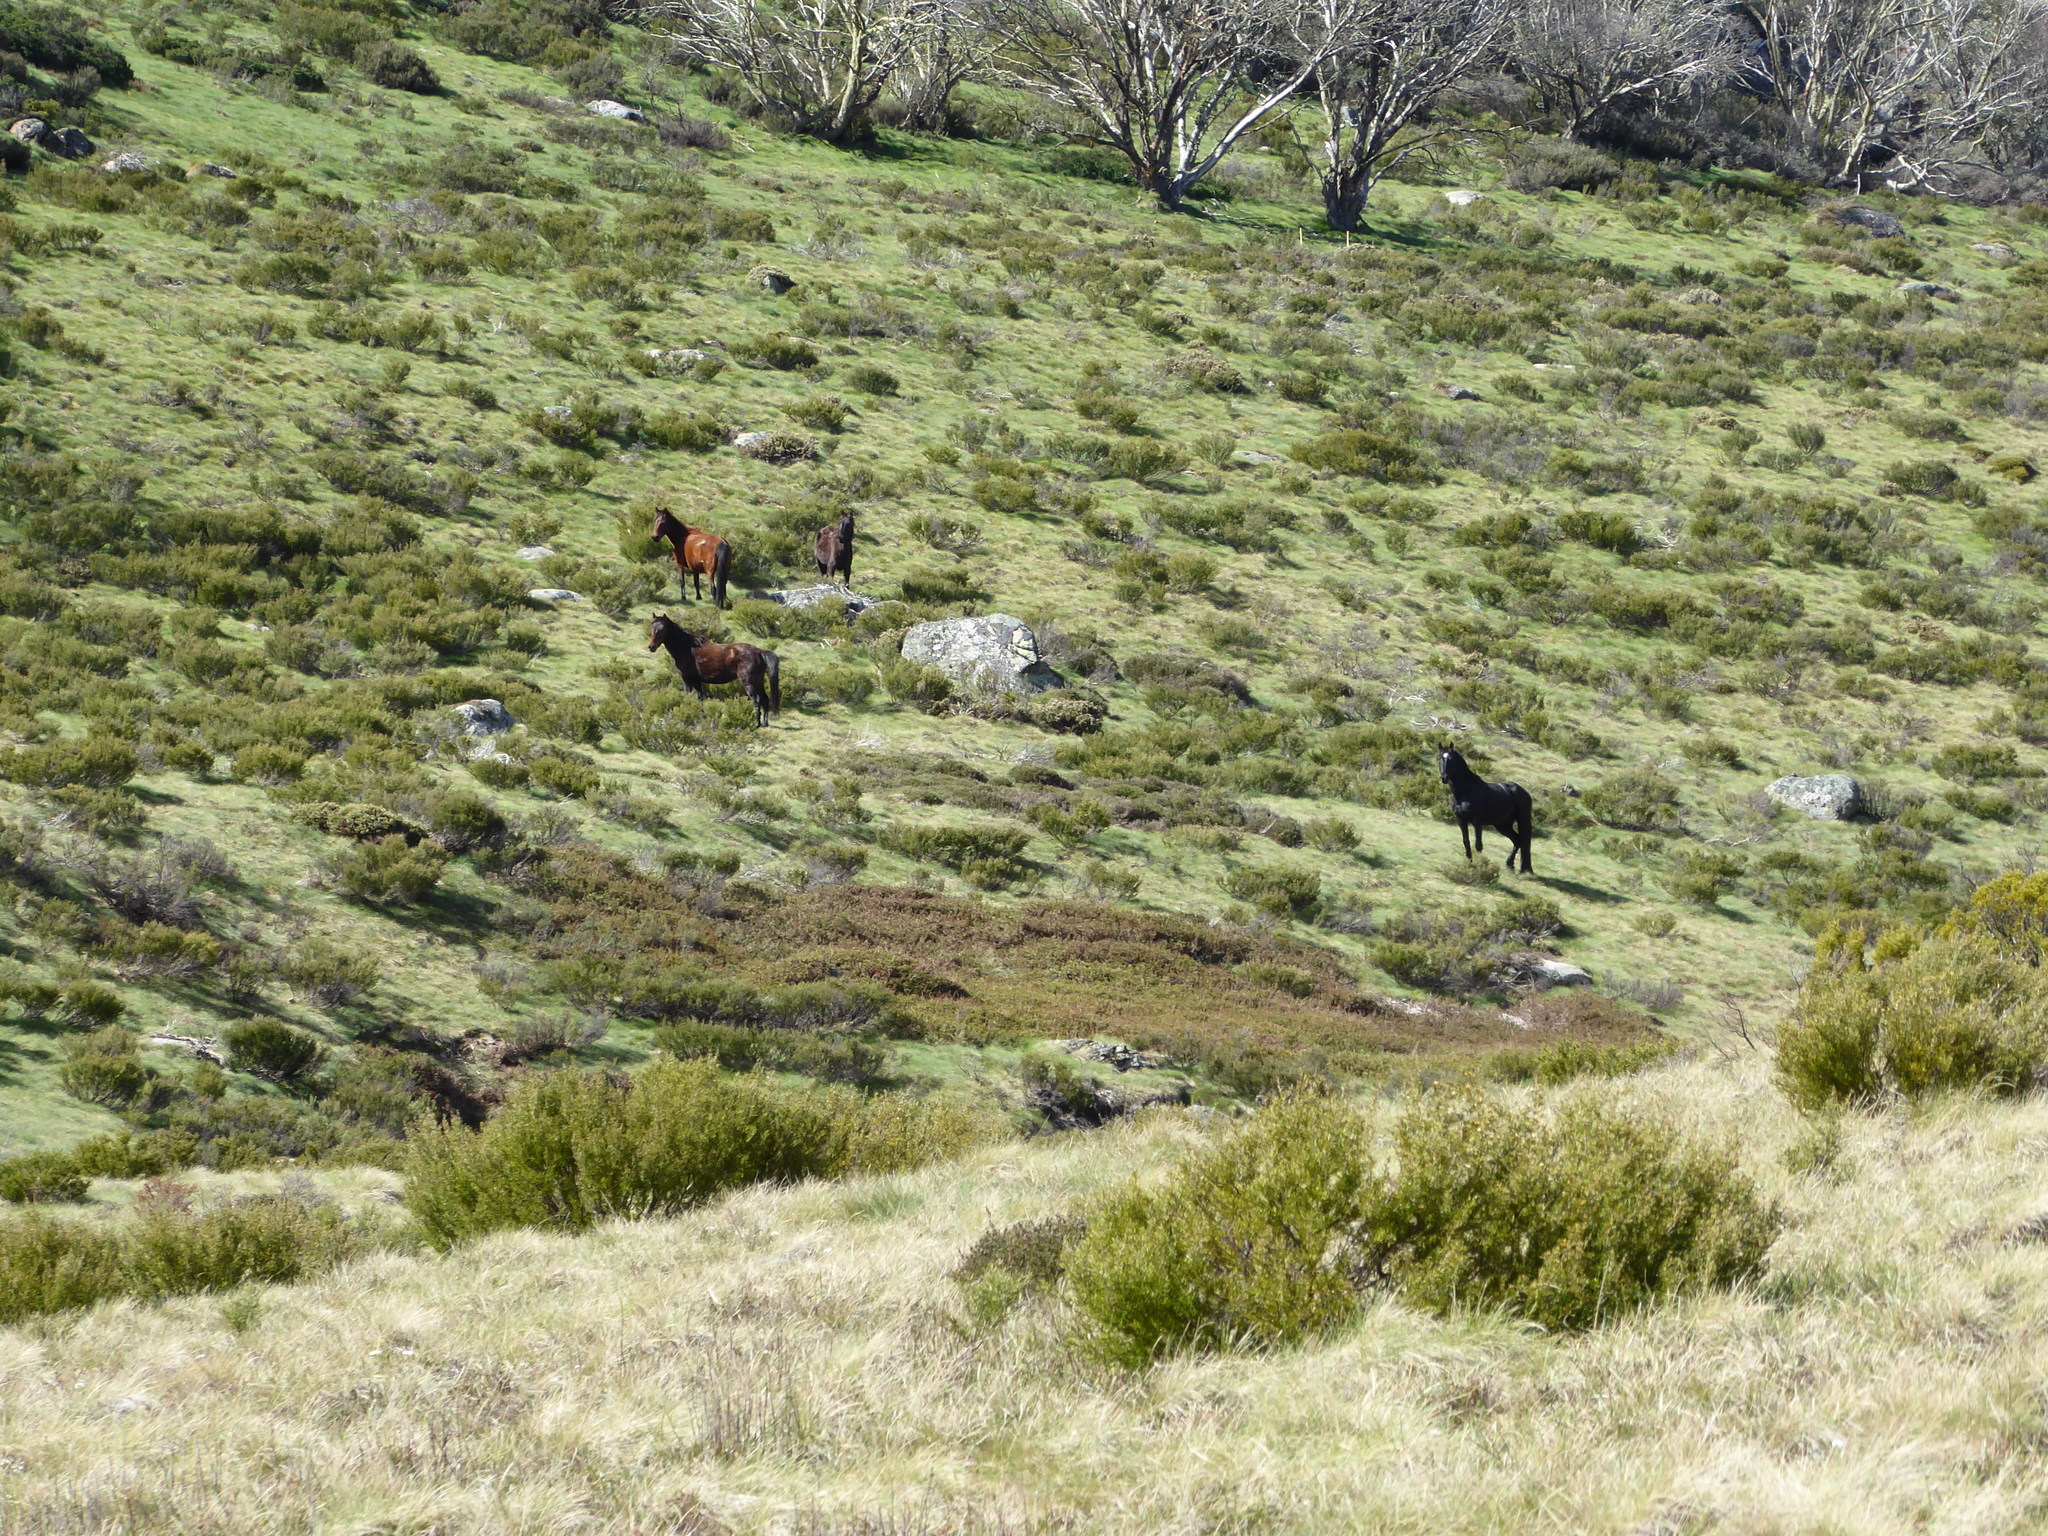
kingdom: Animalia
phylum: Chordata
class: Mammalia
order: Perissodactyla
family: Equidae
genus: Equus
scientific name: Equus caballus
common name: Horse
